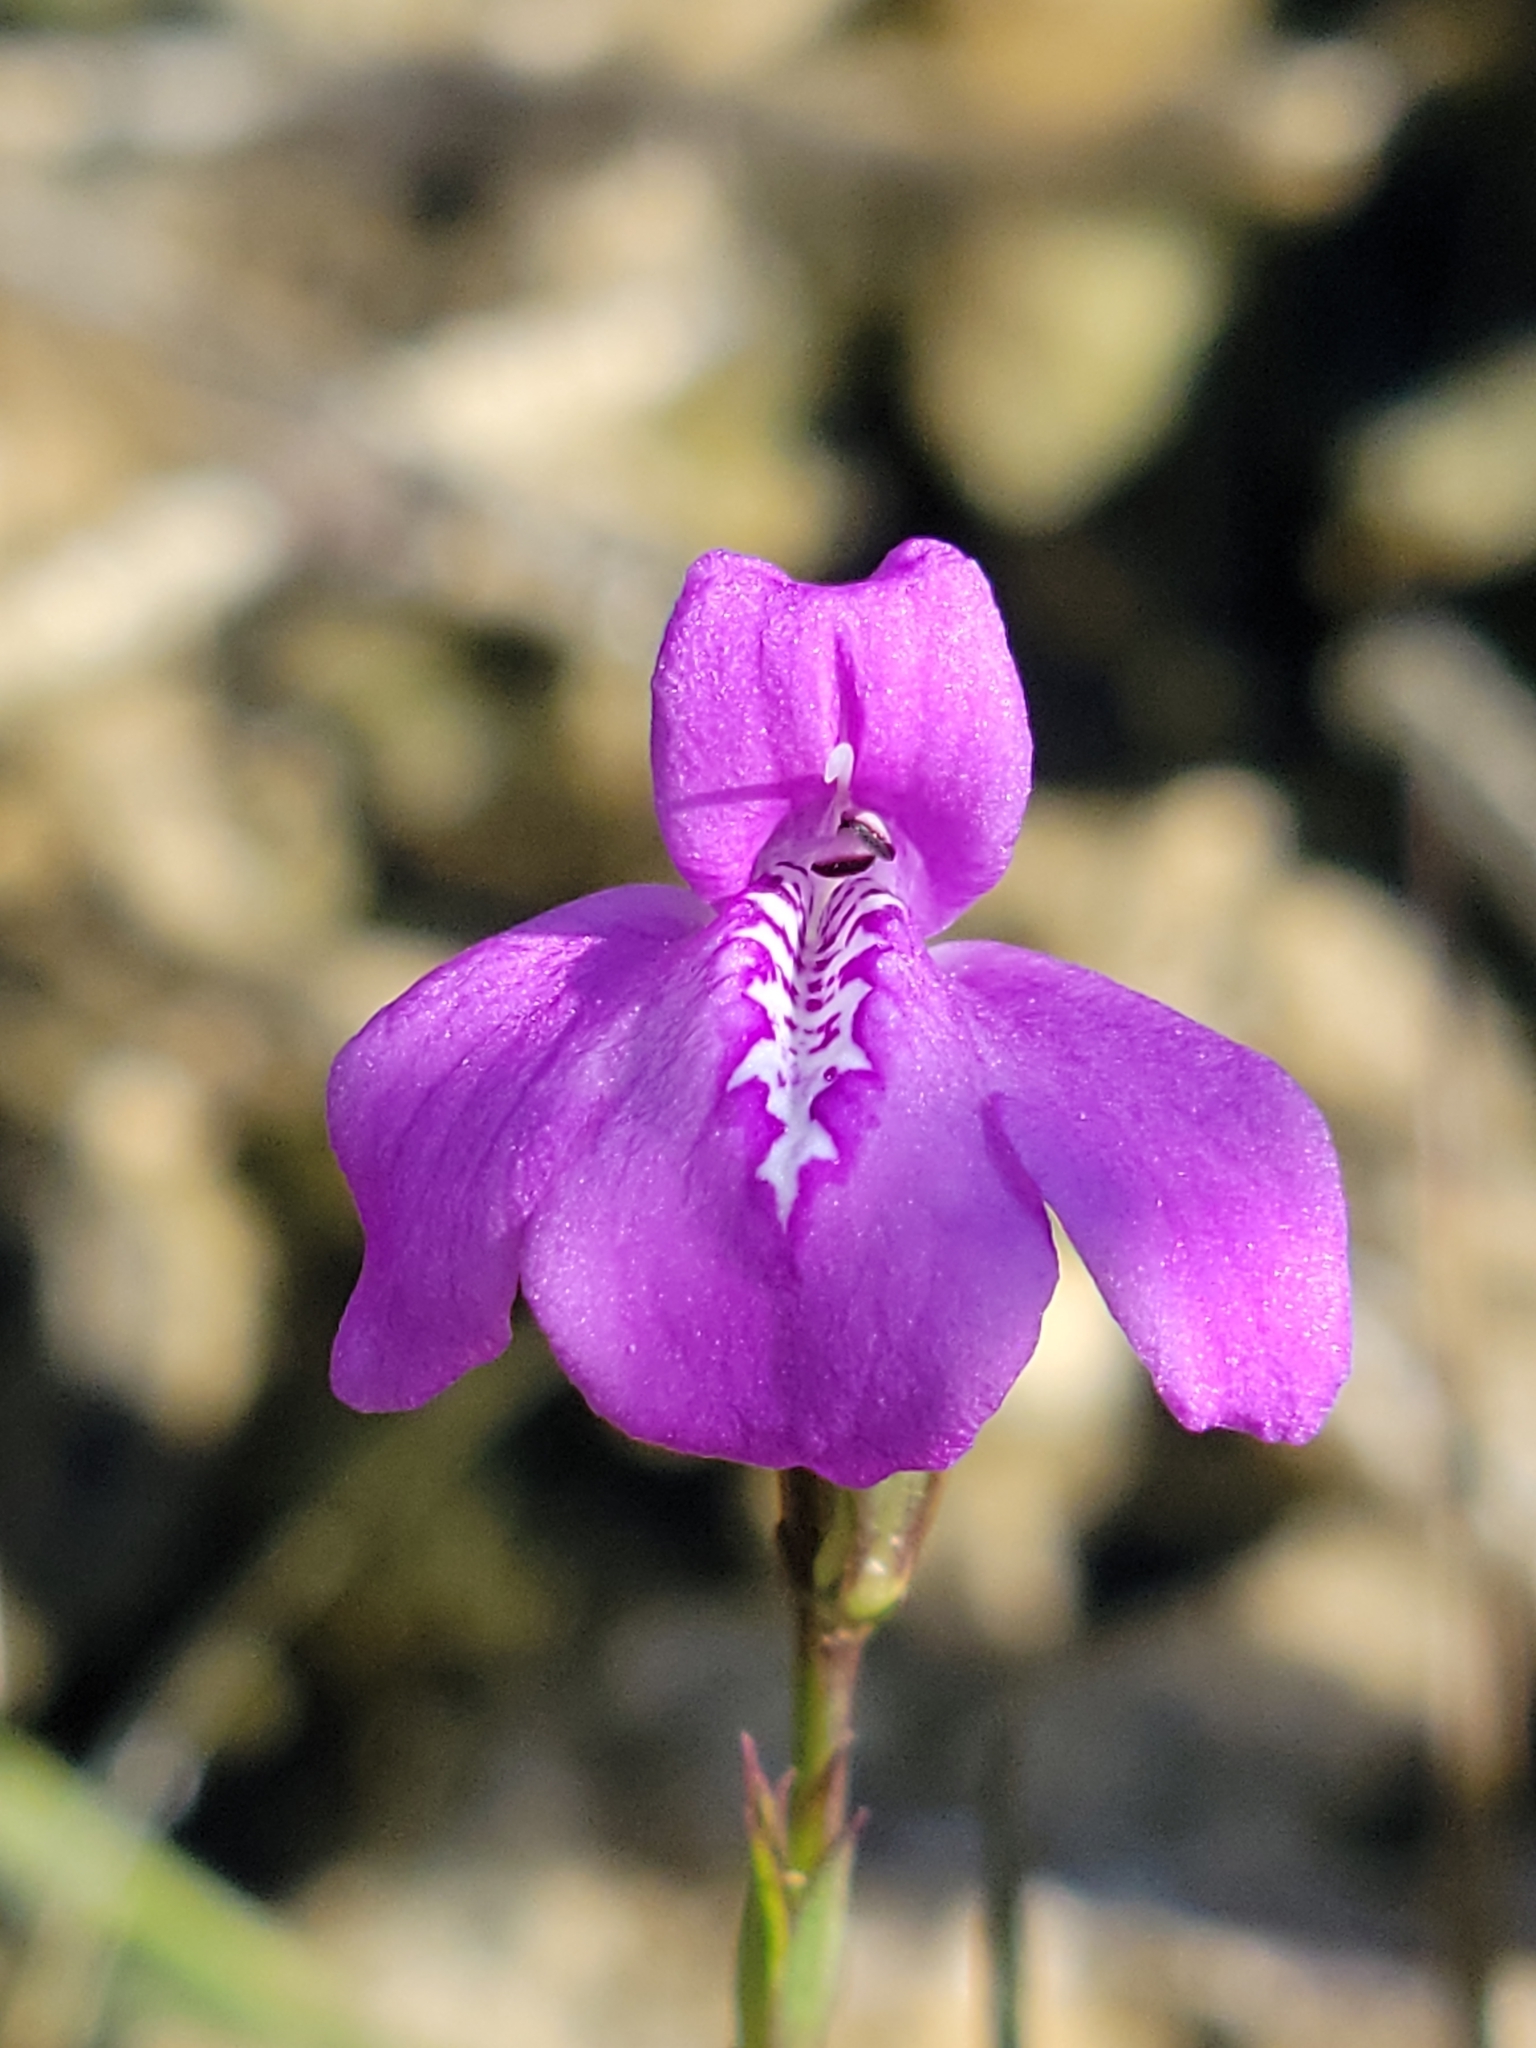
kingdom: Plantae
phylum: Tracheophyta
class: Magnoliopsida
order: Lamiales
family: Acanthaceae
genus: Dianthera
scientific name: Dianthera angusta
